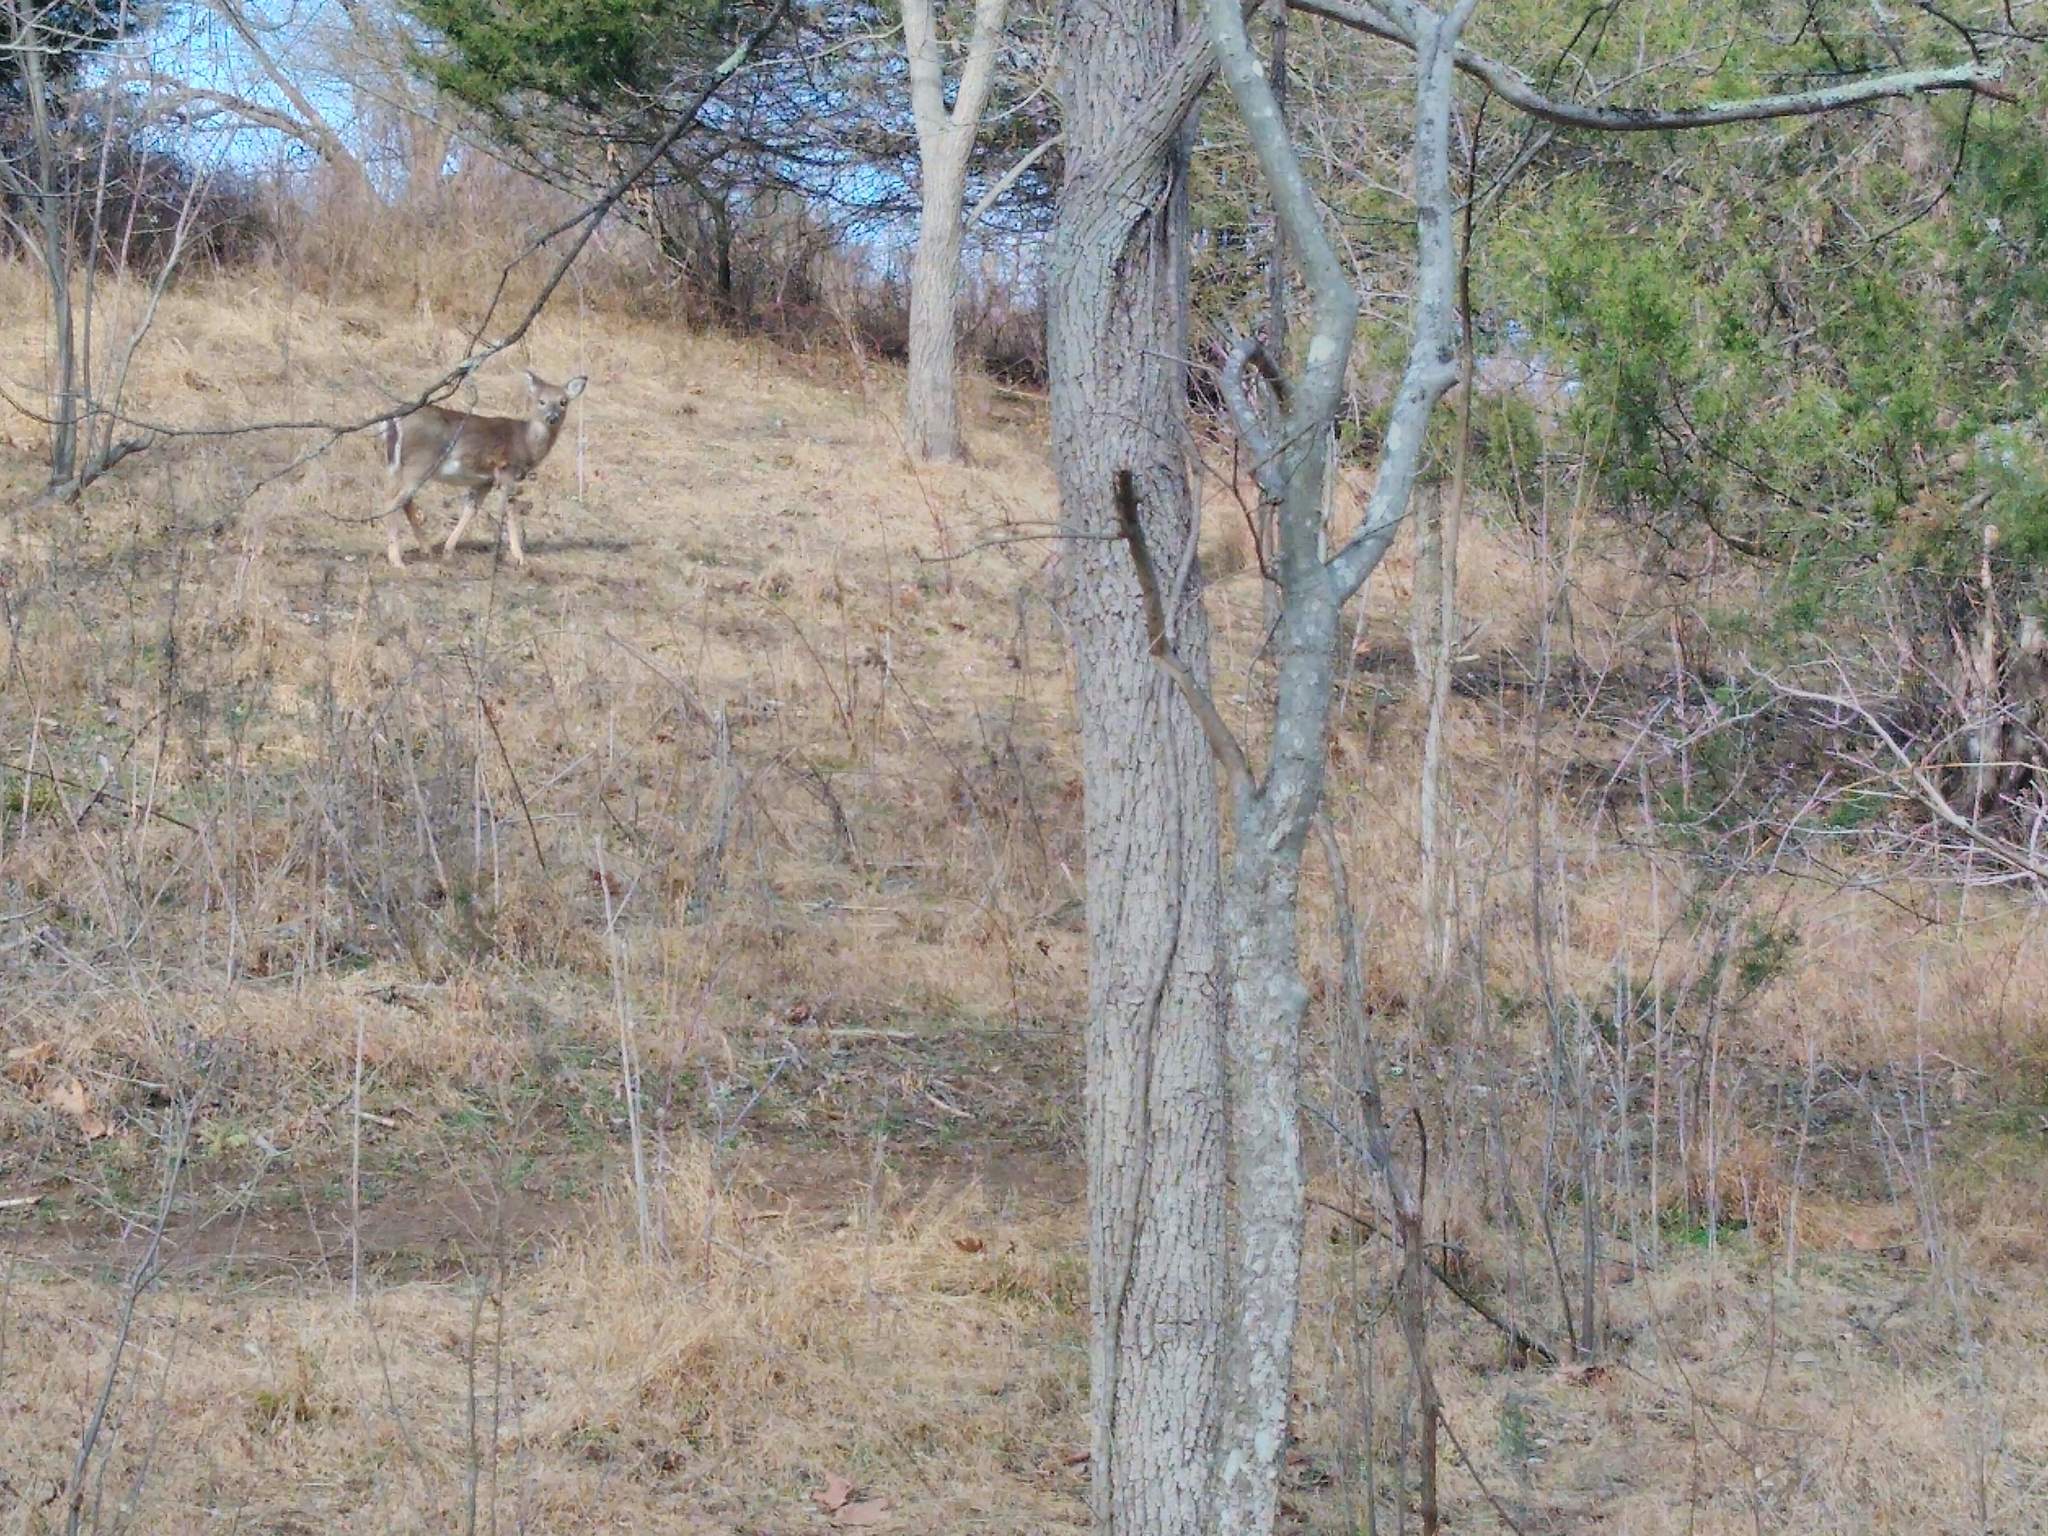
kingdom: Animalia
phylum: Chordata
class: Mammalia
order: Artiodactyla
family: Cervidae
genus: Odocoileus
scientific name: Odocoileus virginianus
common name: White-tailed deer
